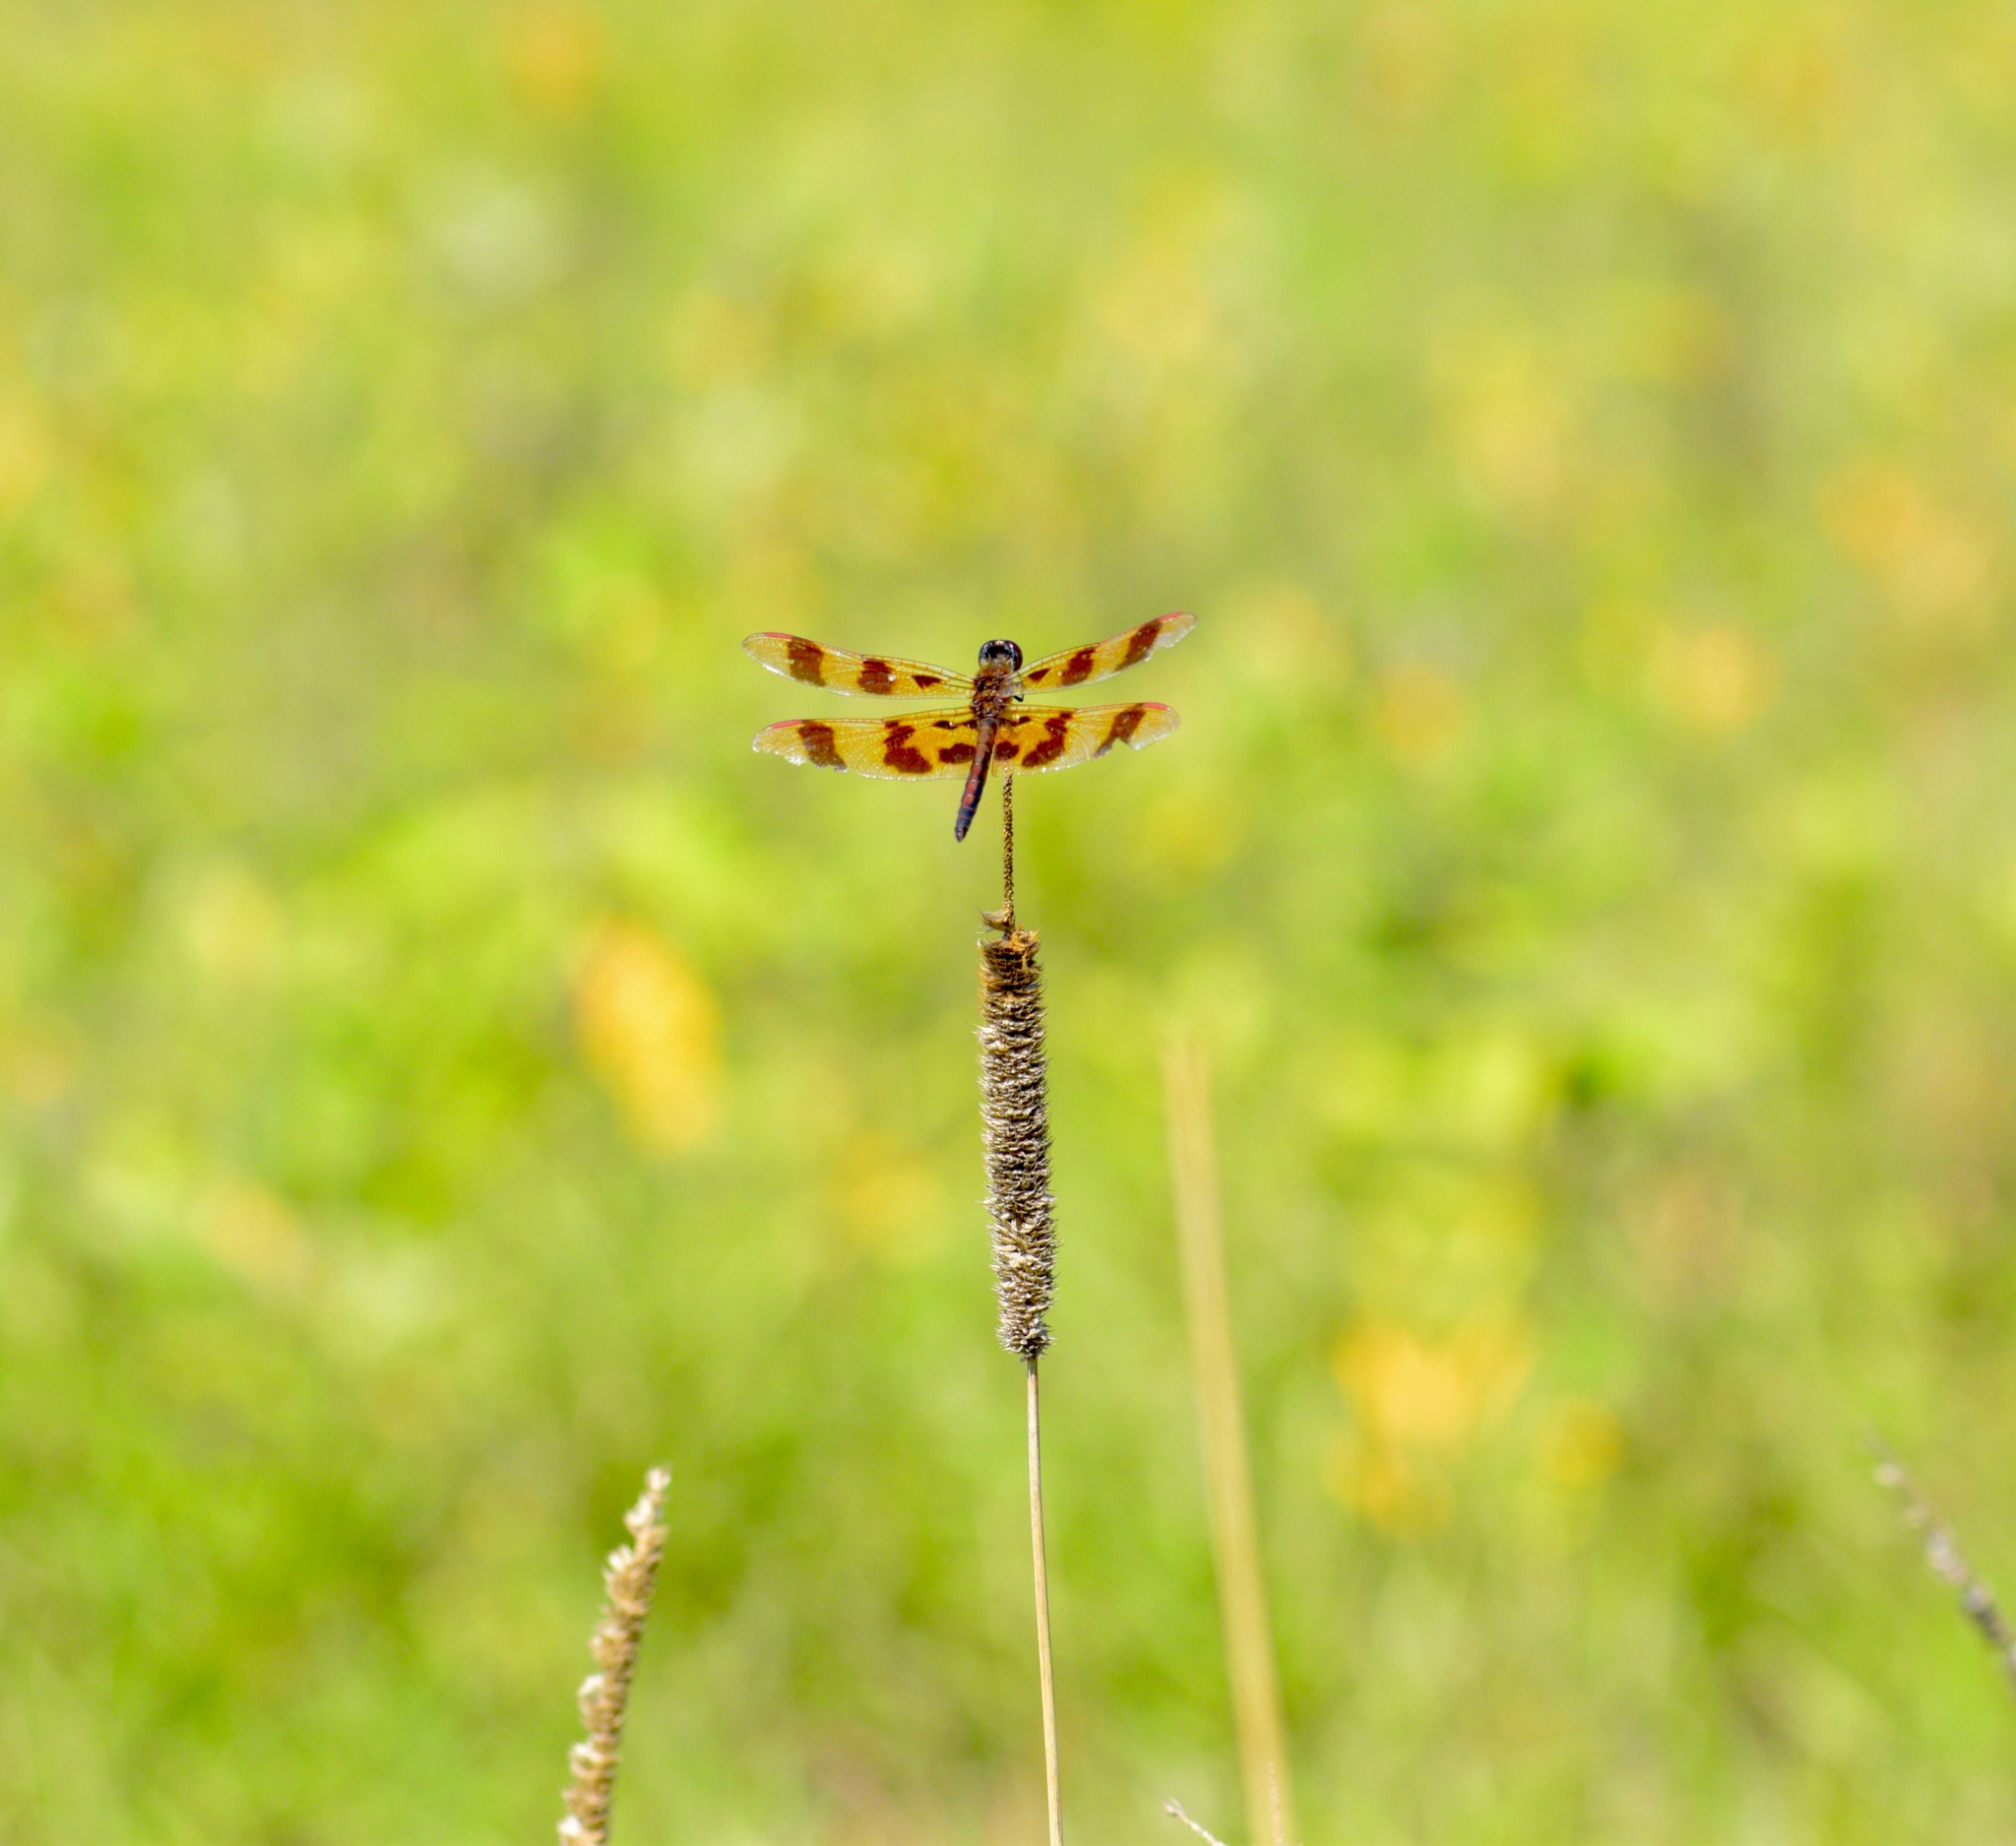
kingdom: Animalia
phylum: Arthropoda
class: Insecta
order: Odonata
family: Libellulidae
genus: Celithemis
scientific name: Celithemis eponina
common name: Halloween pennant
